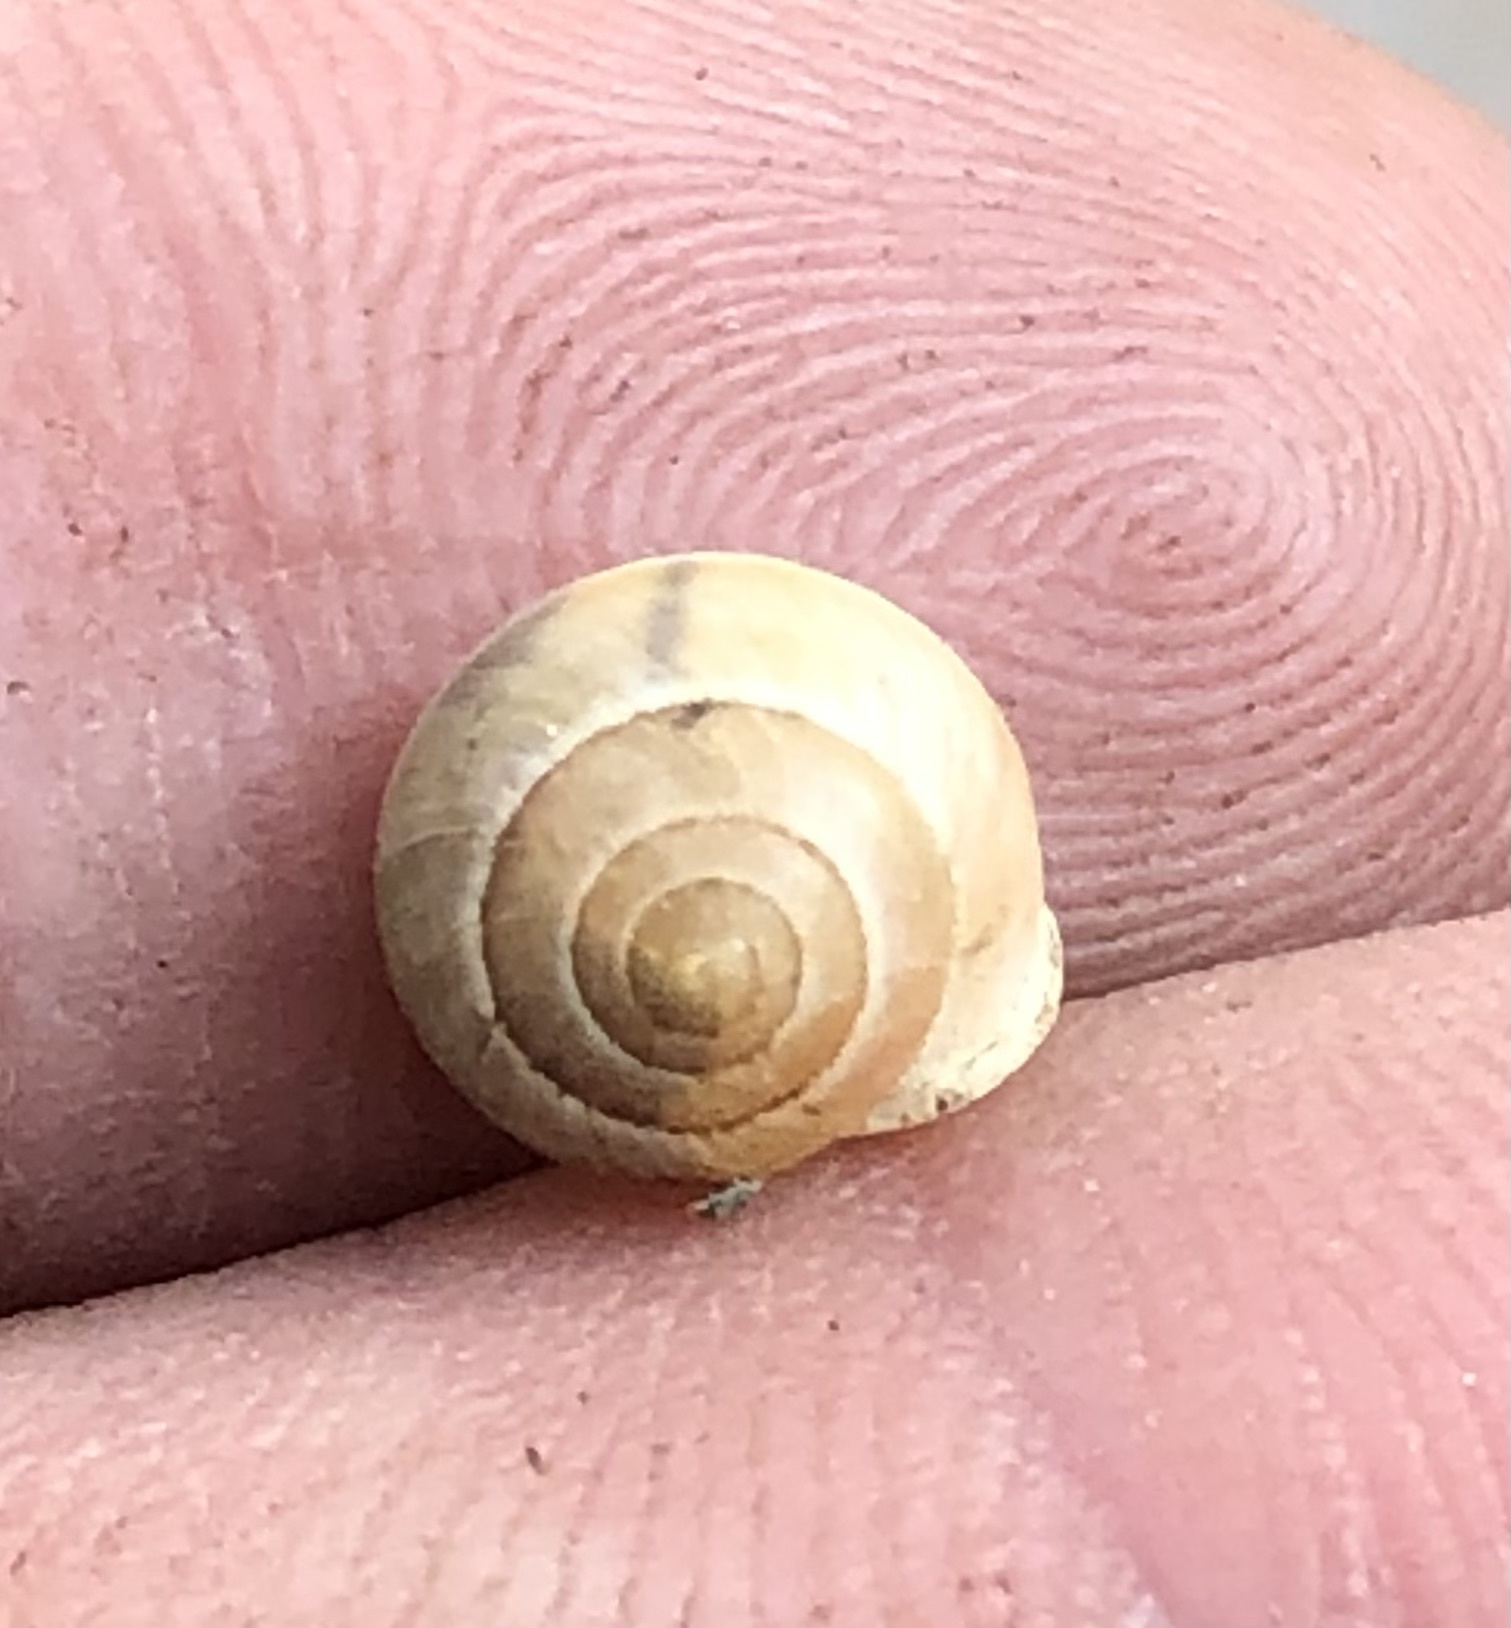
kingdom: Animalia
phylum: Mollusca
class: Gastropoda
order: Cycloneritida
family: Helicinidae
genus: Helicina
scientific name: Helicina orbiculata
